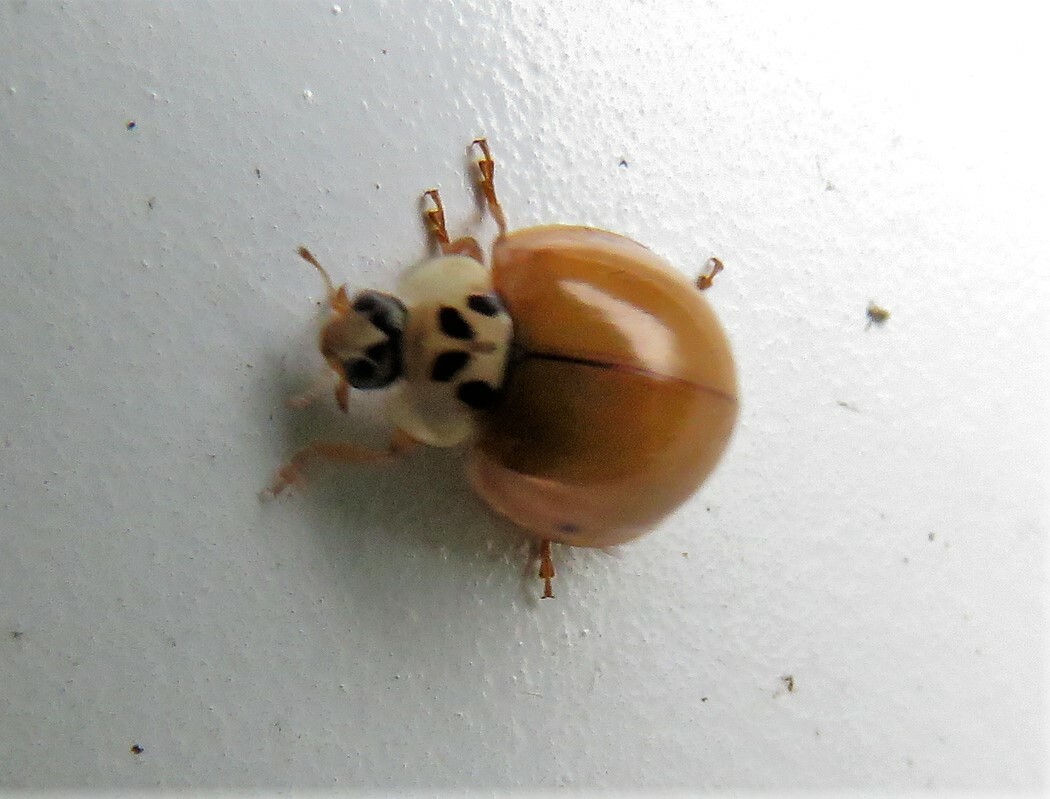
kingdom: Animalia
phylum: Arthropoda
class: Insecta
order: Coleoptera
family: Coccinellidae
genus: Harmonia
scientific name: Harmonia axyridis
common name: Harlequin ladybird
